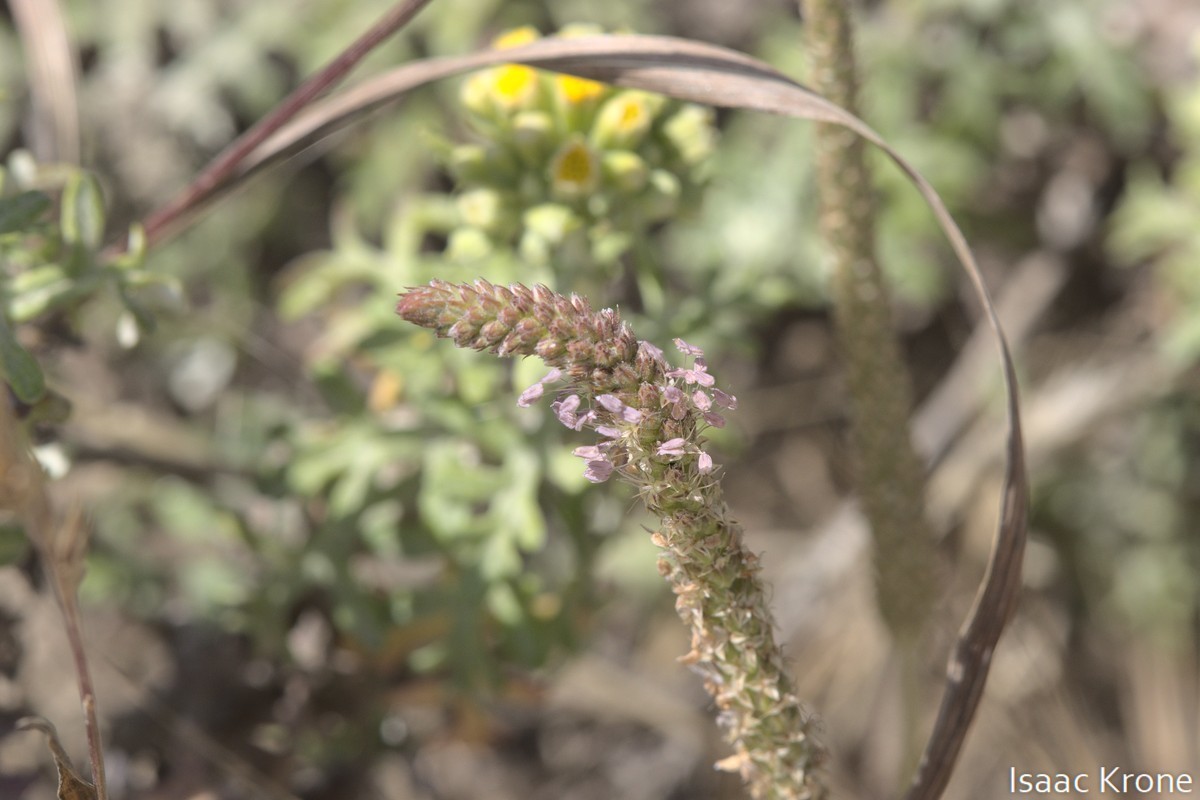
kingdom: Plantae
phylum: Tracheophyta
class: Magnoliopsida
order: Lamiales
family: Plantaginaceae
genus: Plantago
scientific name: Plantago coronopus
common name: Buck's-horn plantain
